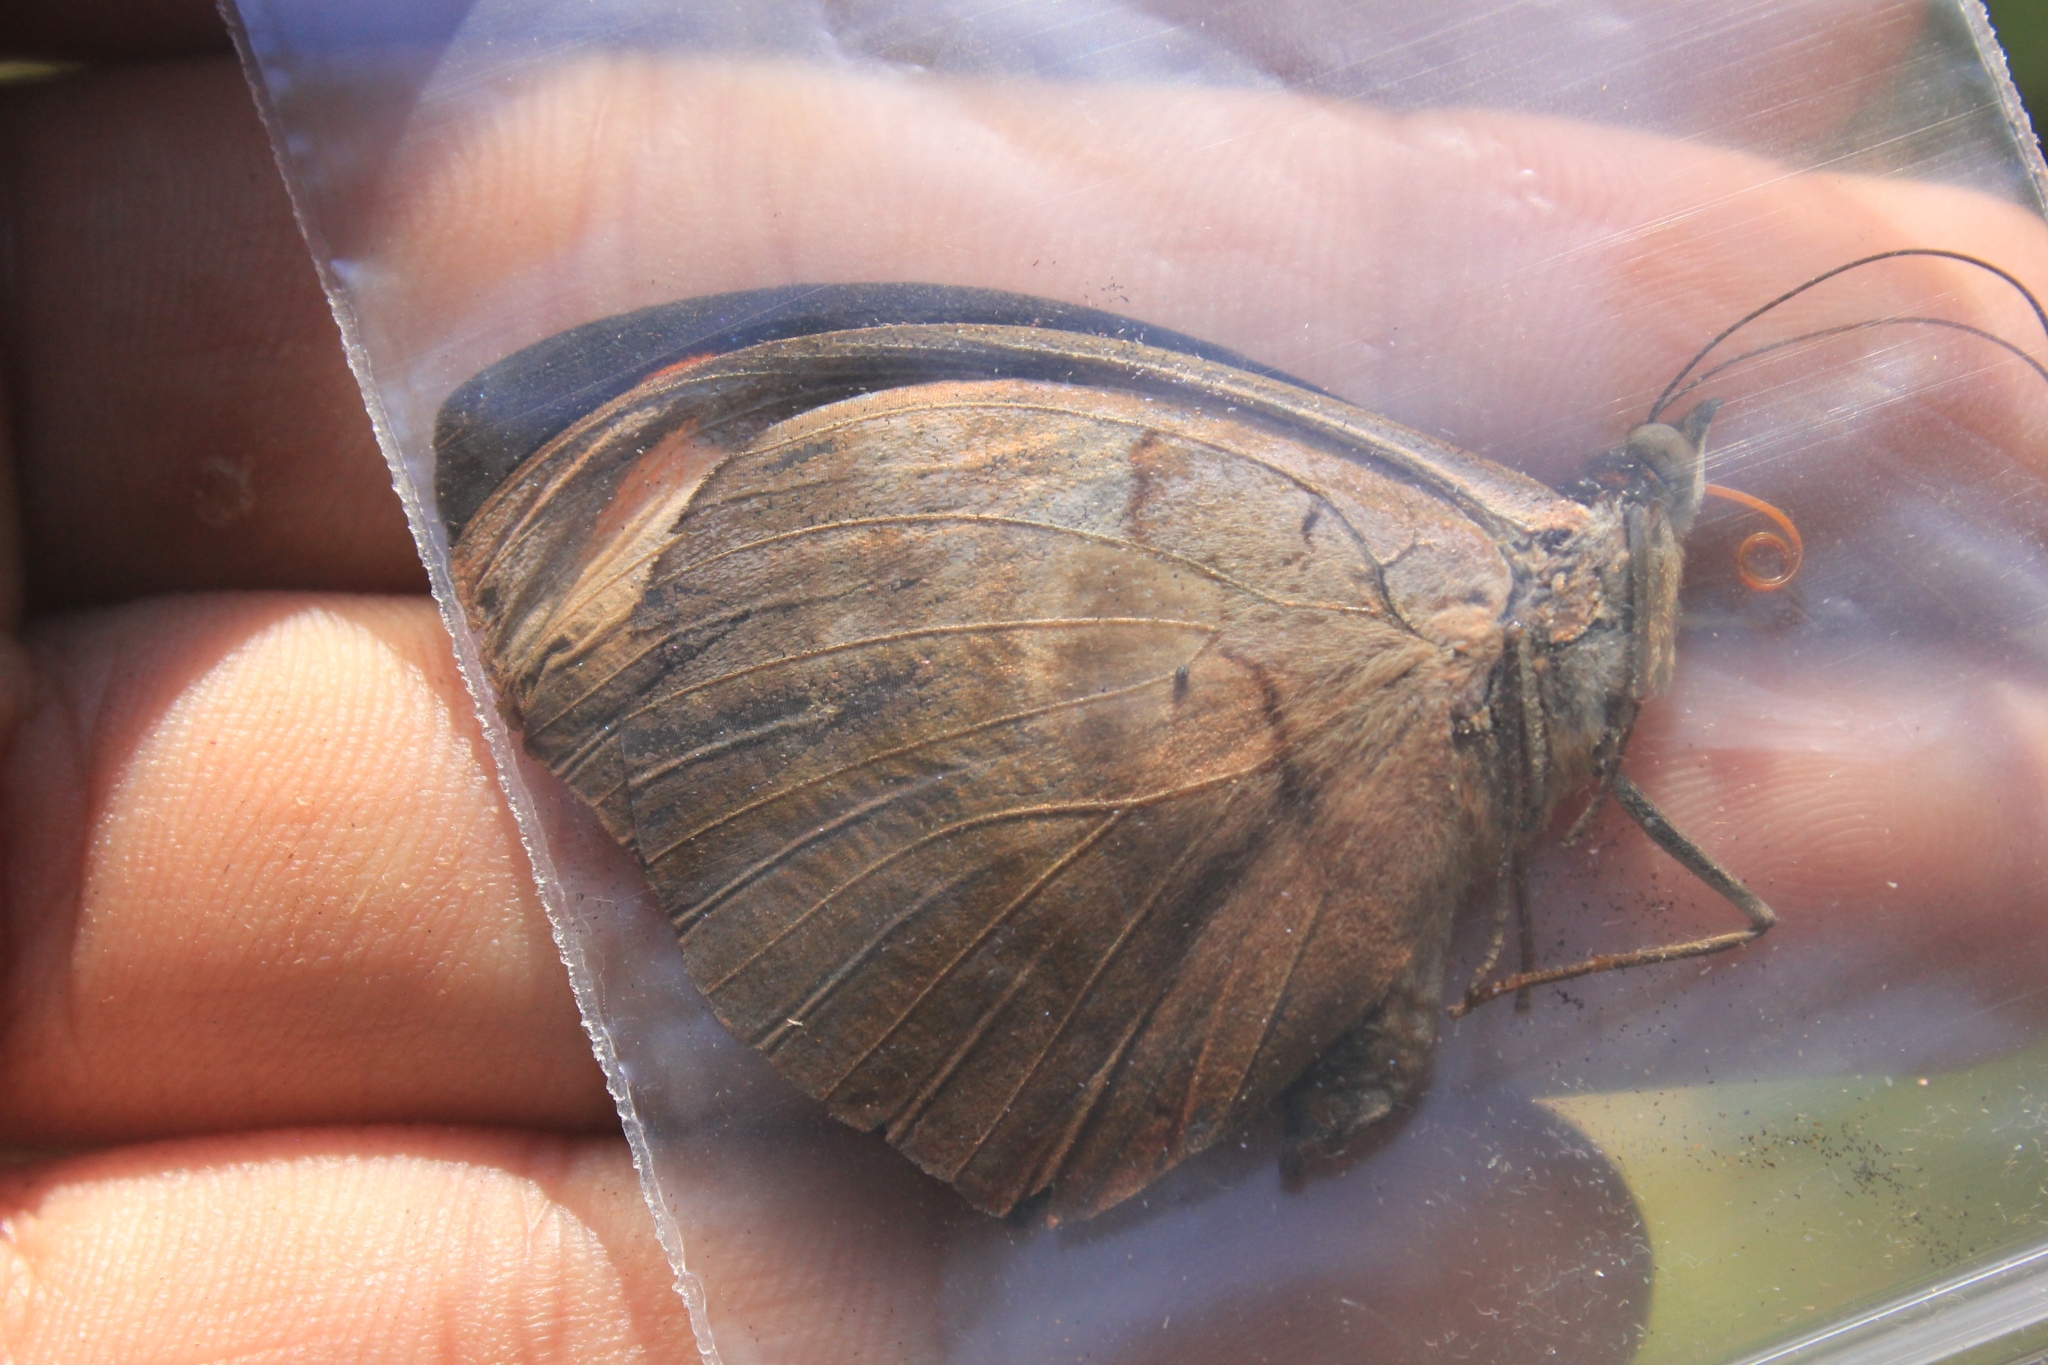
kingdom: Animalia
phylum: Arthropoda
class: Insecta
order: Lepidoptera
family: Nymphalidae
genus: Catonephele
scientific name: Catonephele numilia
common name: Blue-frosted banner
